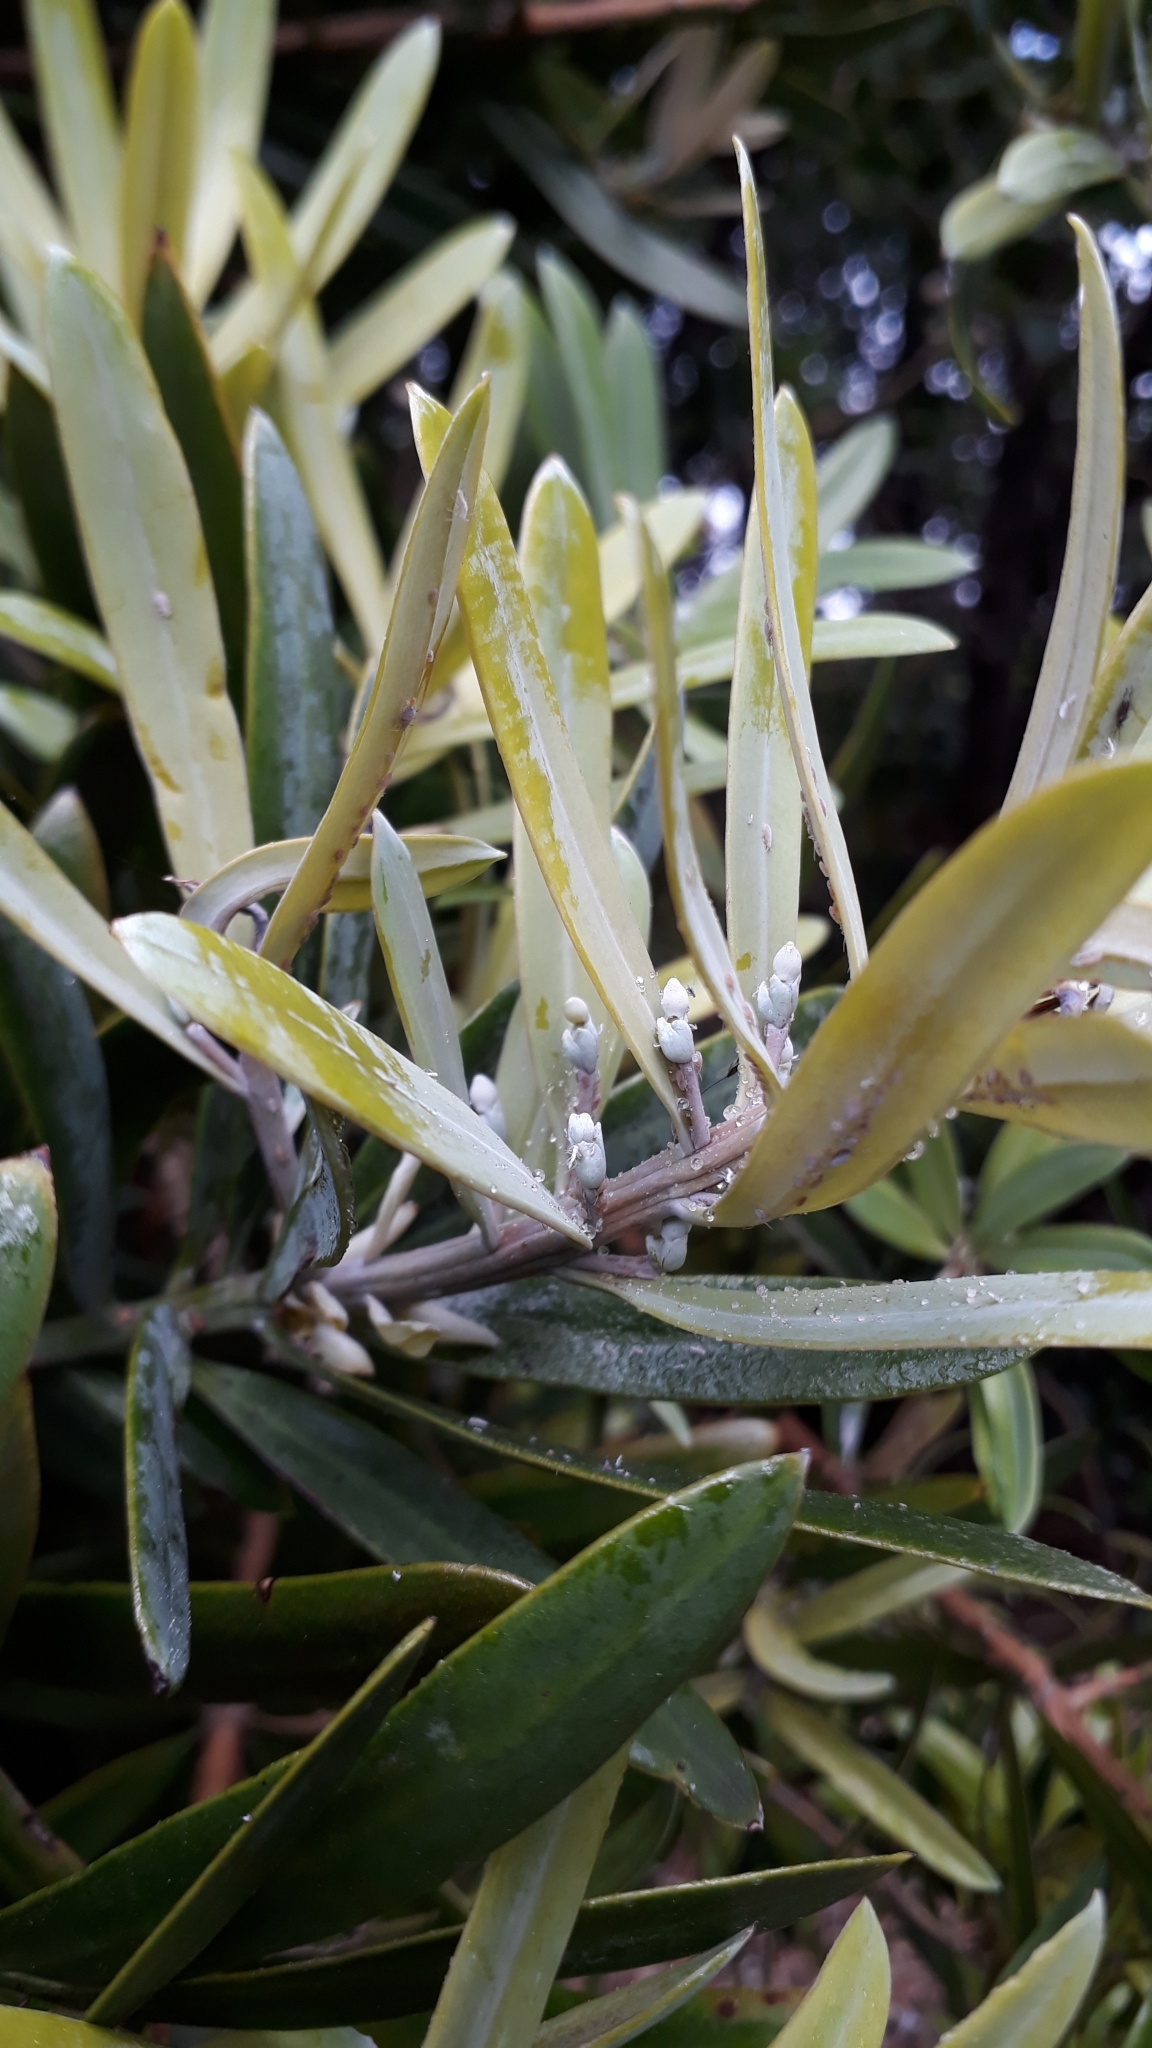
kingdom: Plantae
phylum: Tracheophyta
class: Pinopsida
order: Pinales
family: Podocarpaceae
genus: Podocarpus
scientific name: Podocarpus latifolius
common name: True yellowwood
